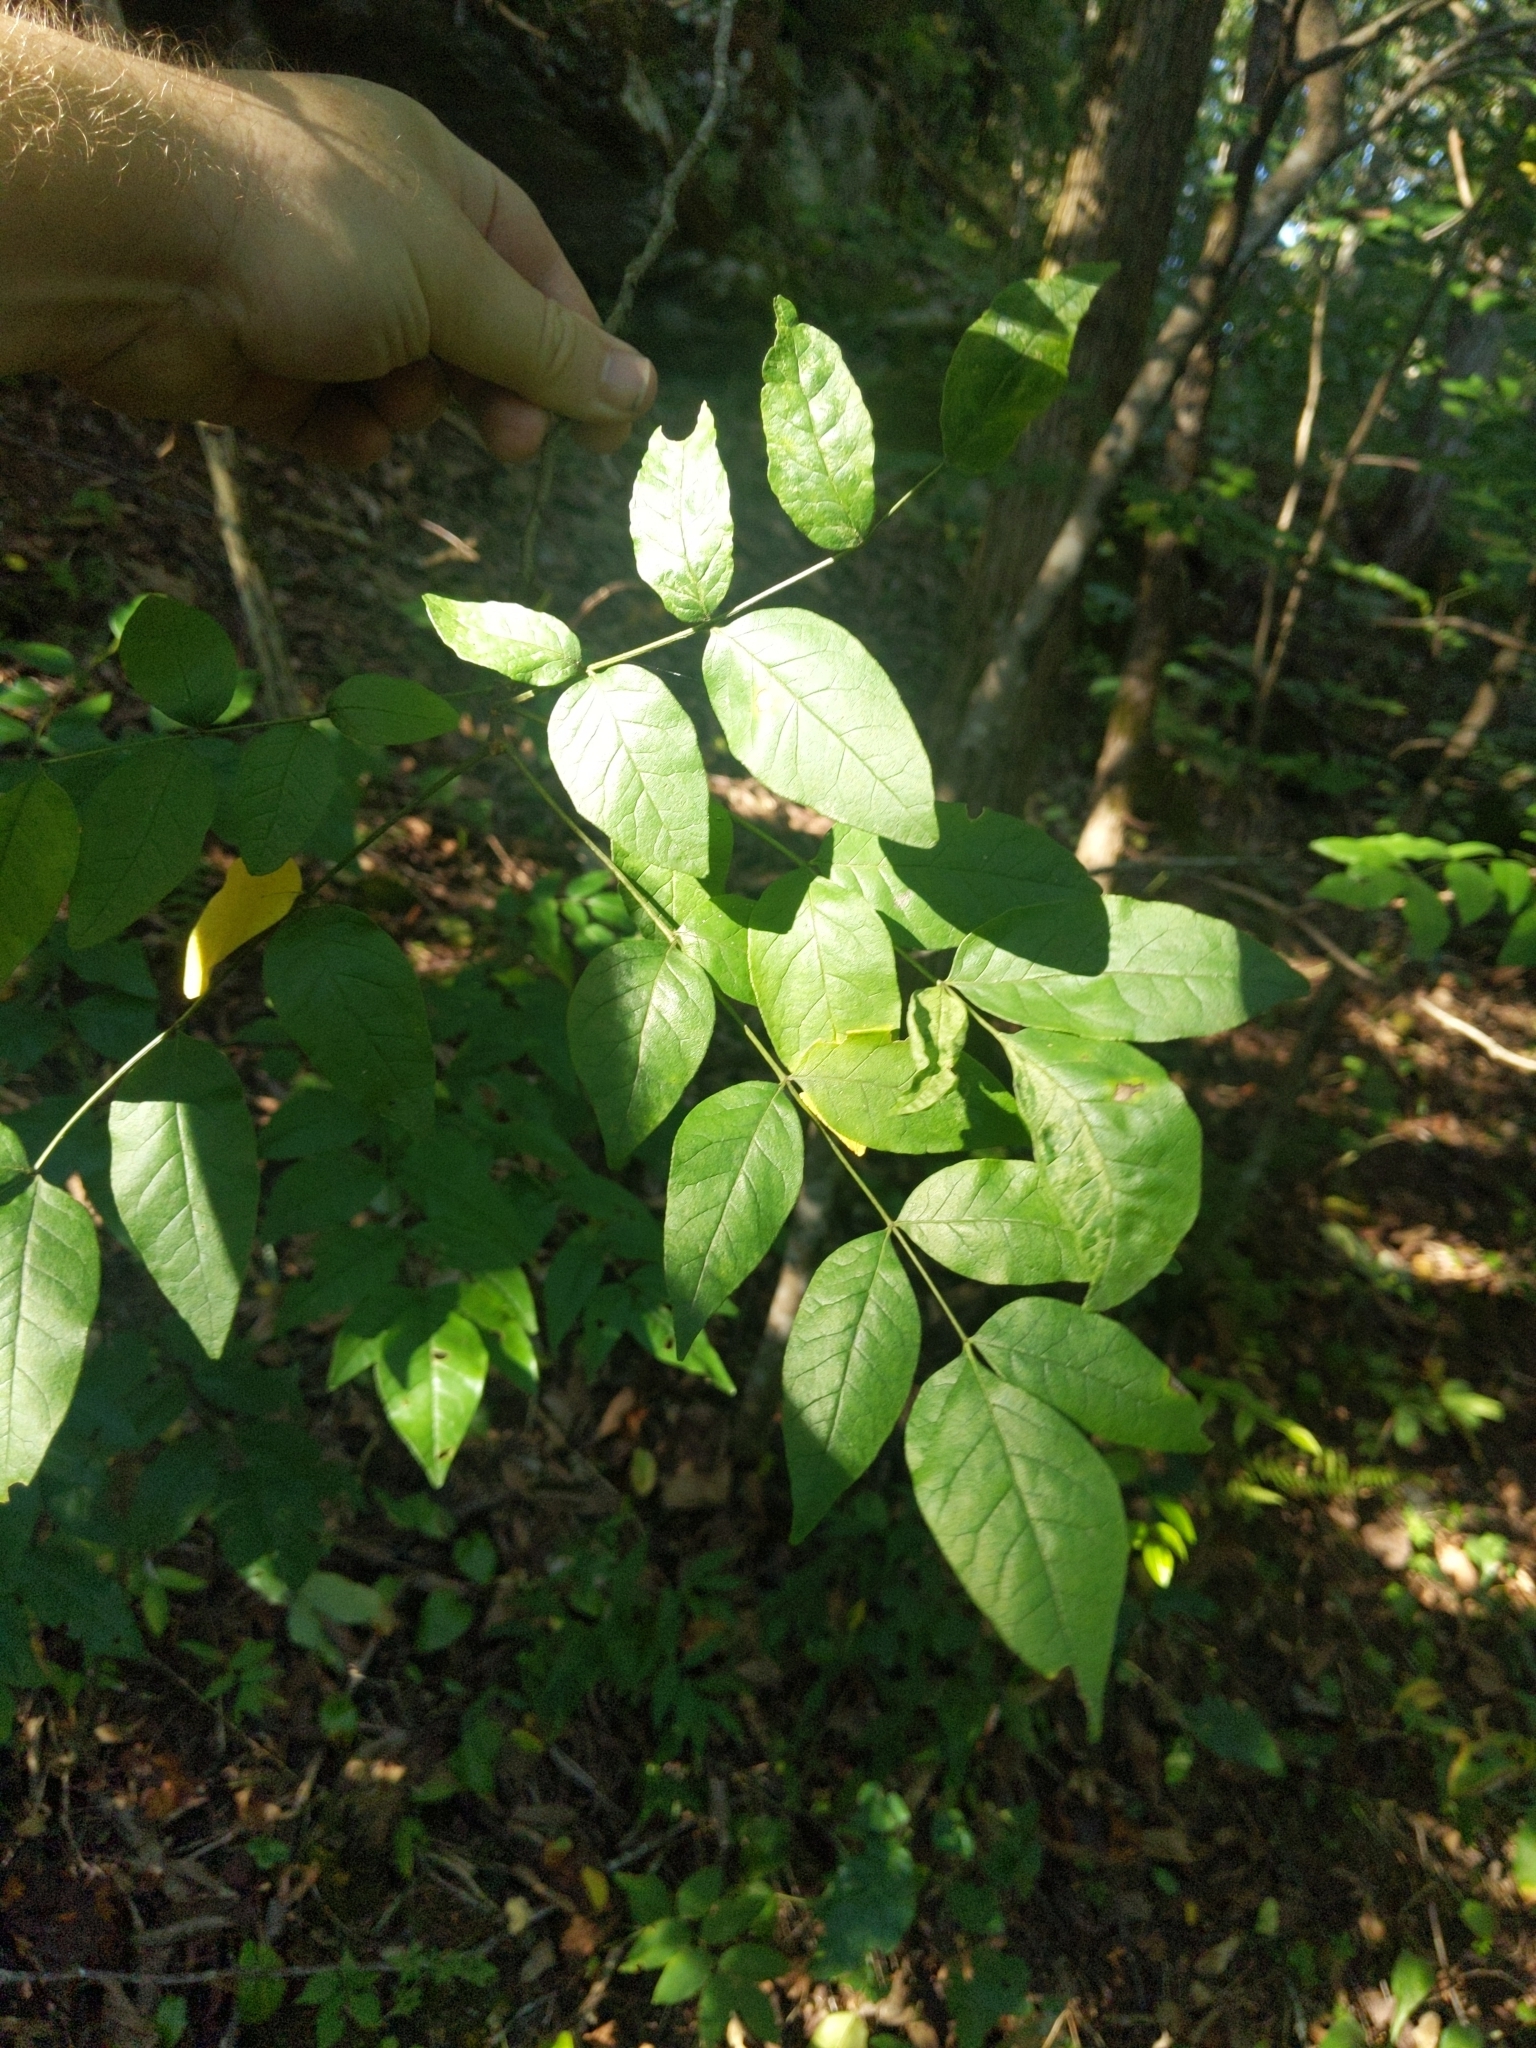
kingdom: Plantae
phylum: Tracheophyta
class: Magnoliopsida
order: Sapindales
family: Rutaceae
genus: Zanthoxylum
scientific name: Zanthoxylum americanum
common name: Northern prickly-ash
